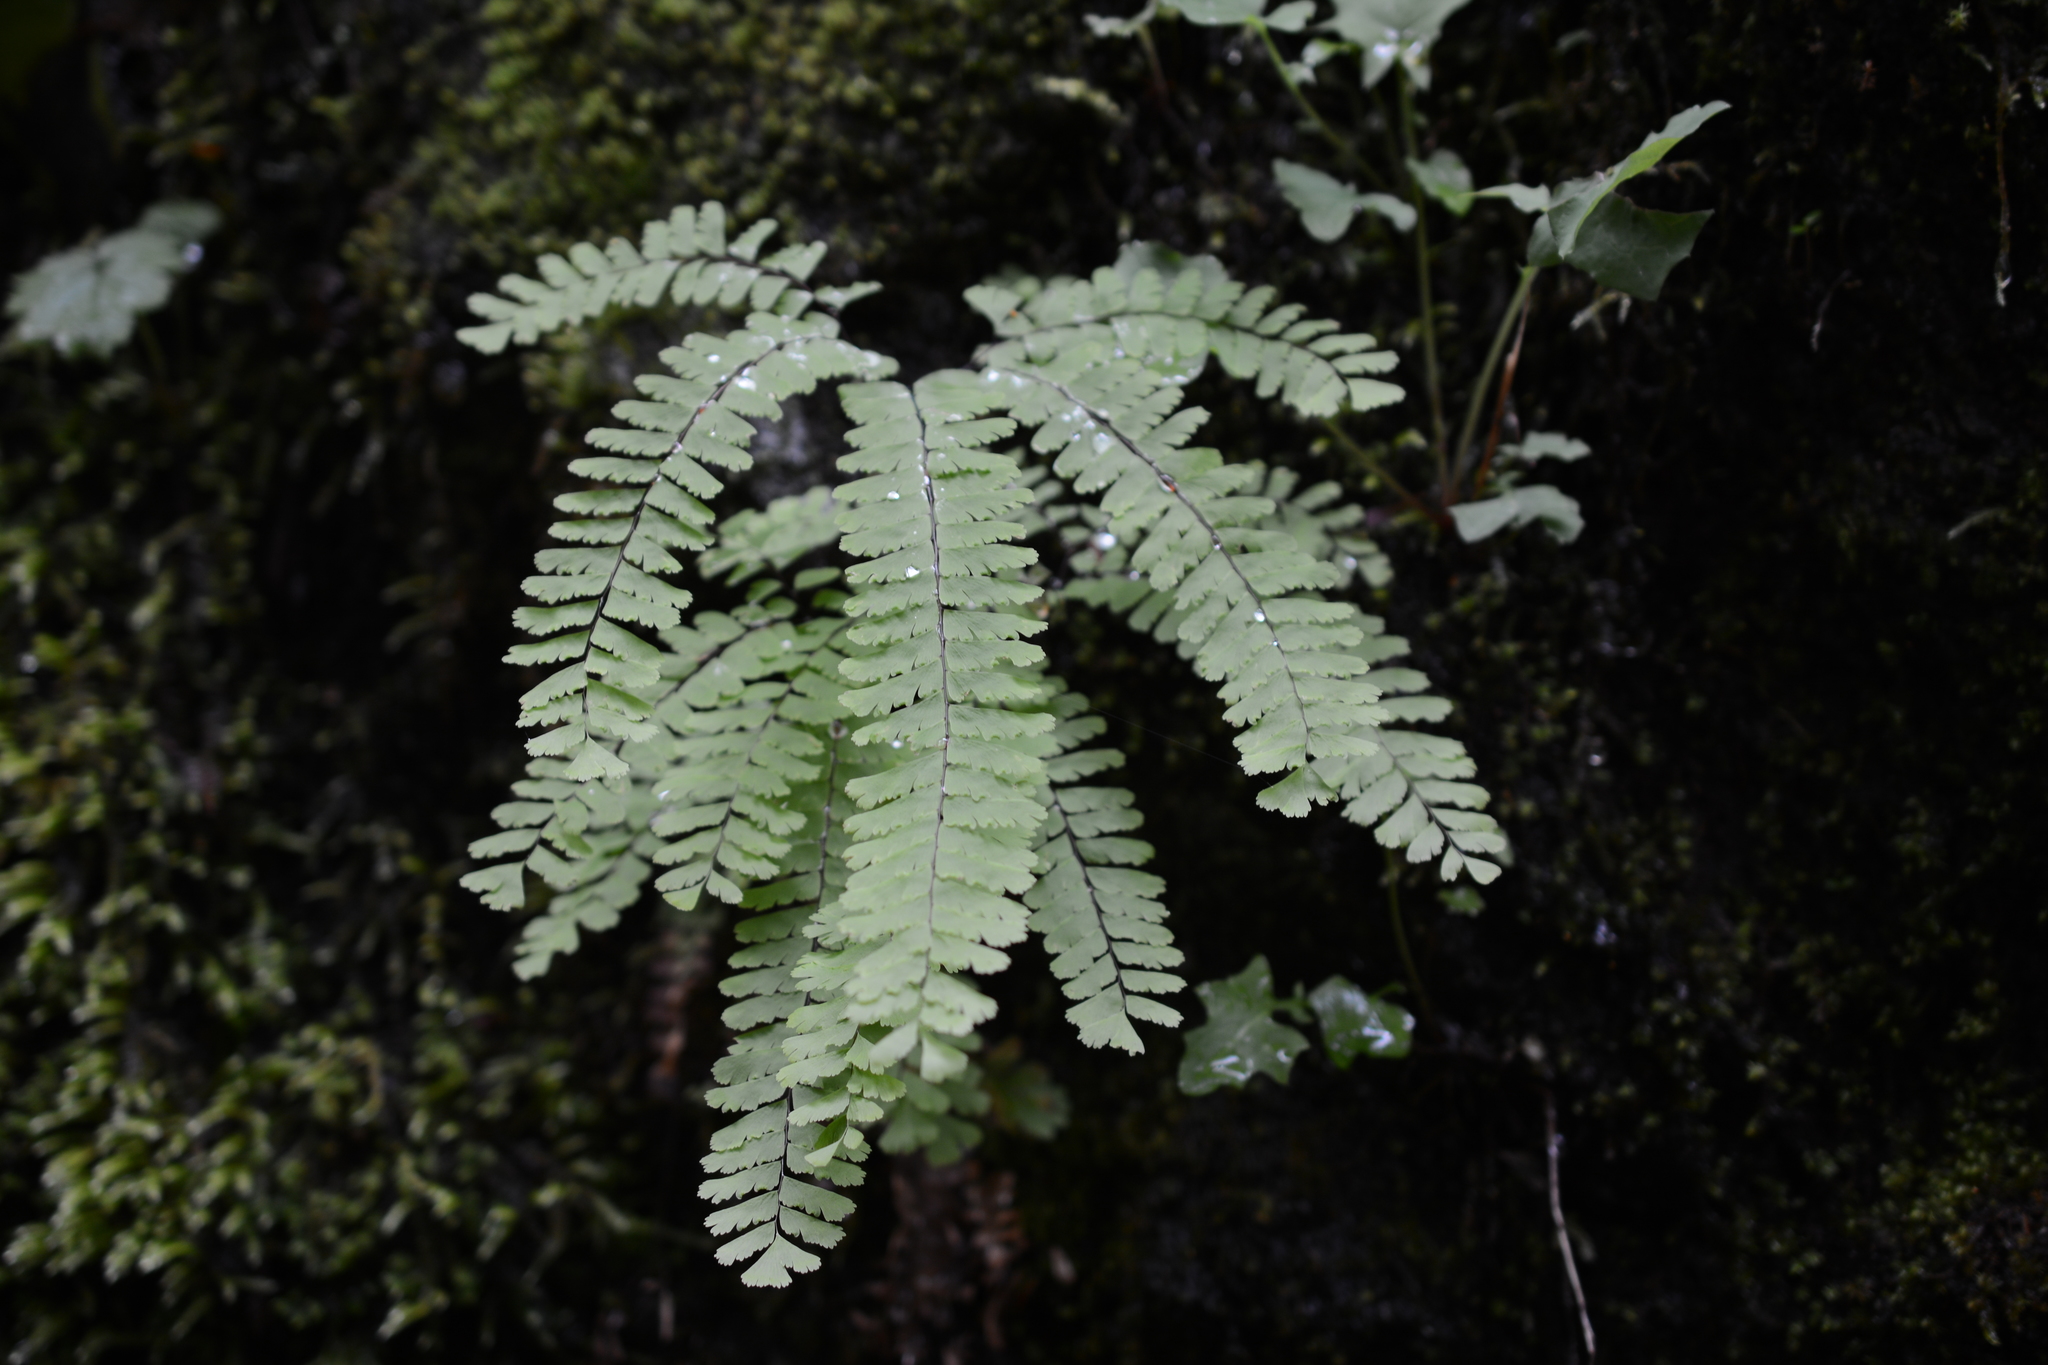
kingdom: Plantae
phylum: Tracheophyta
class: Polypodiopsida
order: Polypodiales
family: Pteridaceae
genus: Adiantum
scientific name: Adiantum aleuticum
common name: Aleutian maidenhair fern
